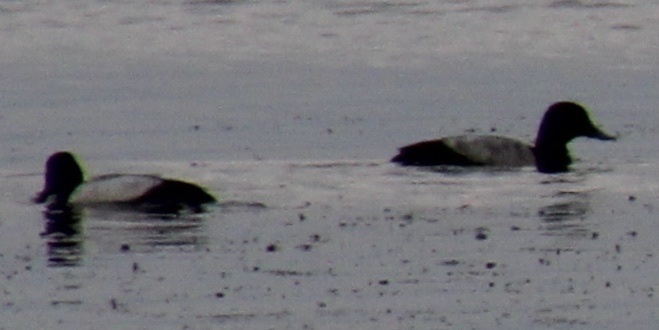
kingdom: Animalia
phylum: Chordata
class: Aves
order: Anseriformes
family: Anatidae
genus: Aythya
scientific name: Aythya affinis
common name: Lesser scaup
